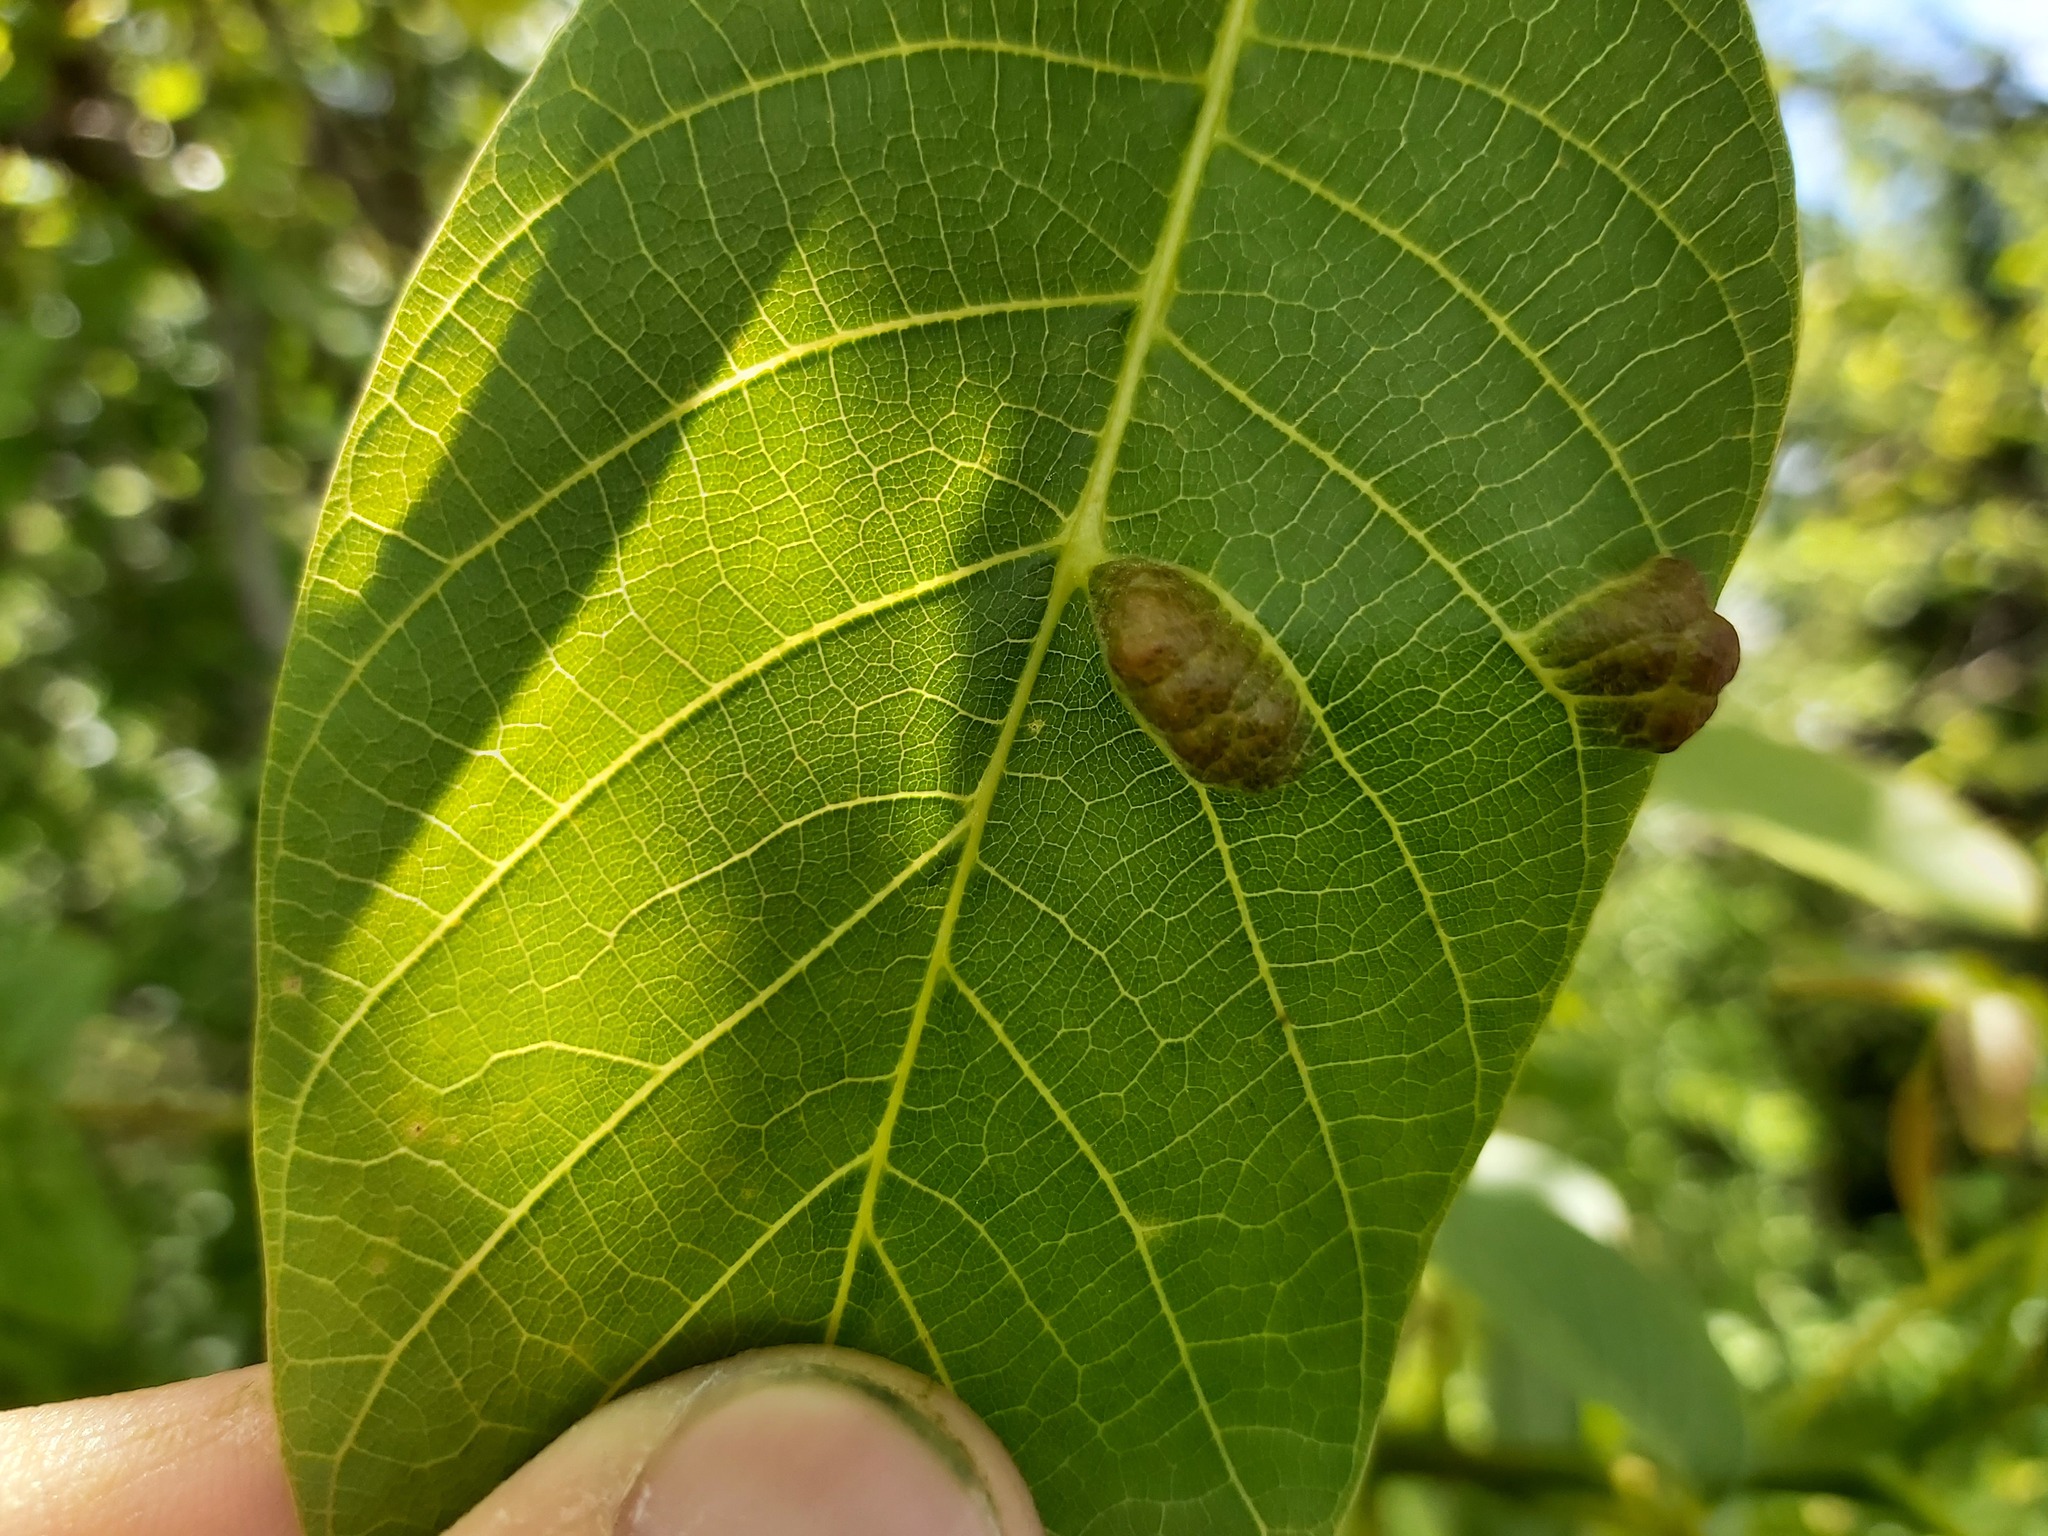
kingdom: Animalia
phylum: Arthropoda
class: Arachnida
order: Trombidiformes
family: Eriophyidae
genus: Aceria
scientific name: Aceria erinea
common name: Persian walnut erineum mite
